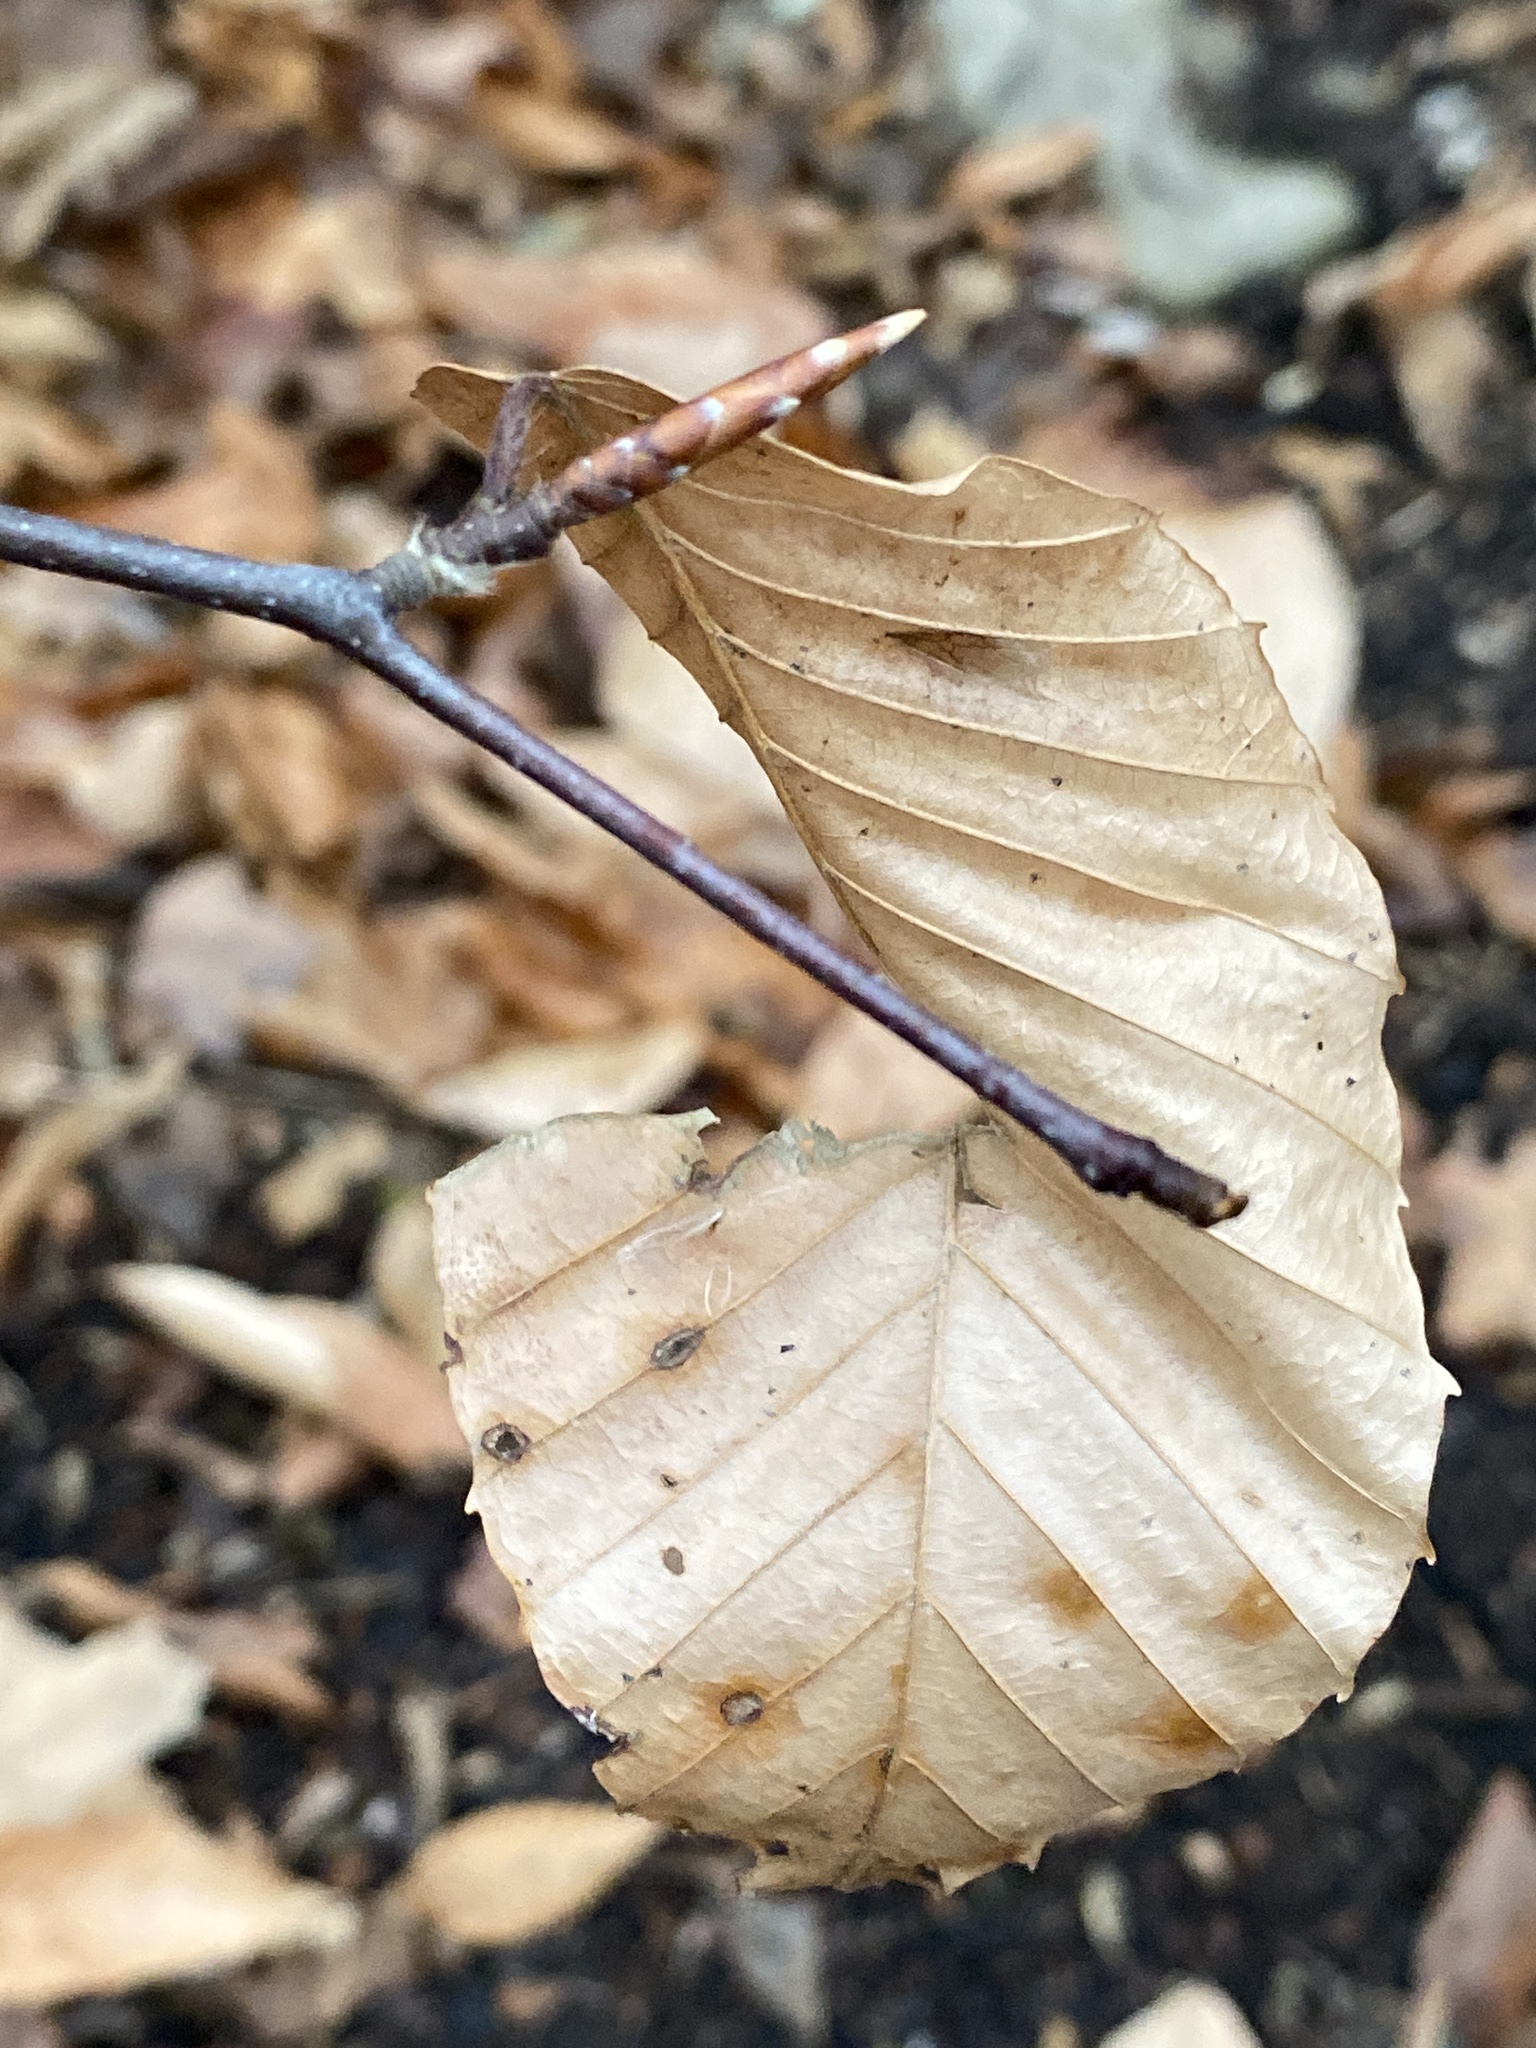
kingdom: Plantae
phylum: Tracheophyta
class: Magnoliopsida
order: Fagales
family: Fagaceae
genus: Fagus
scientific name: Fagus grandifolia
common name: American beech
